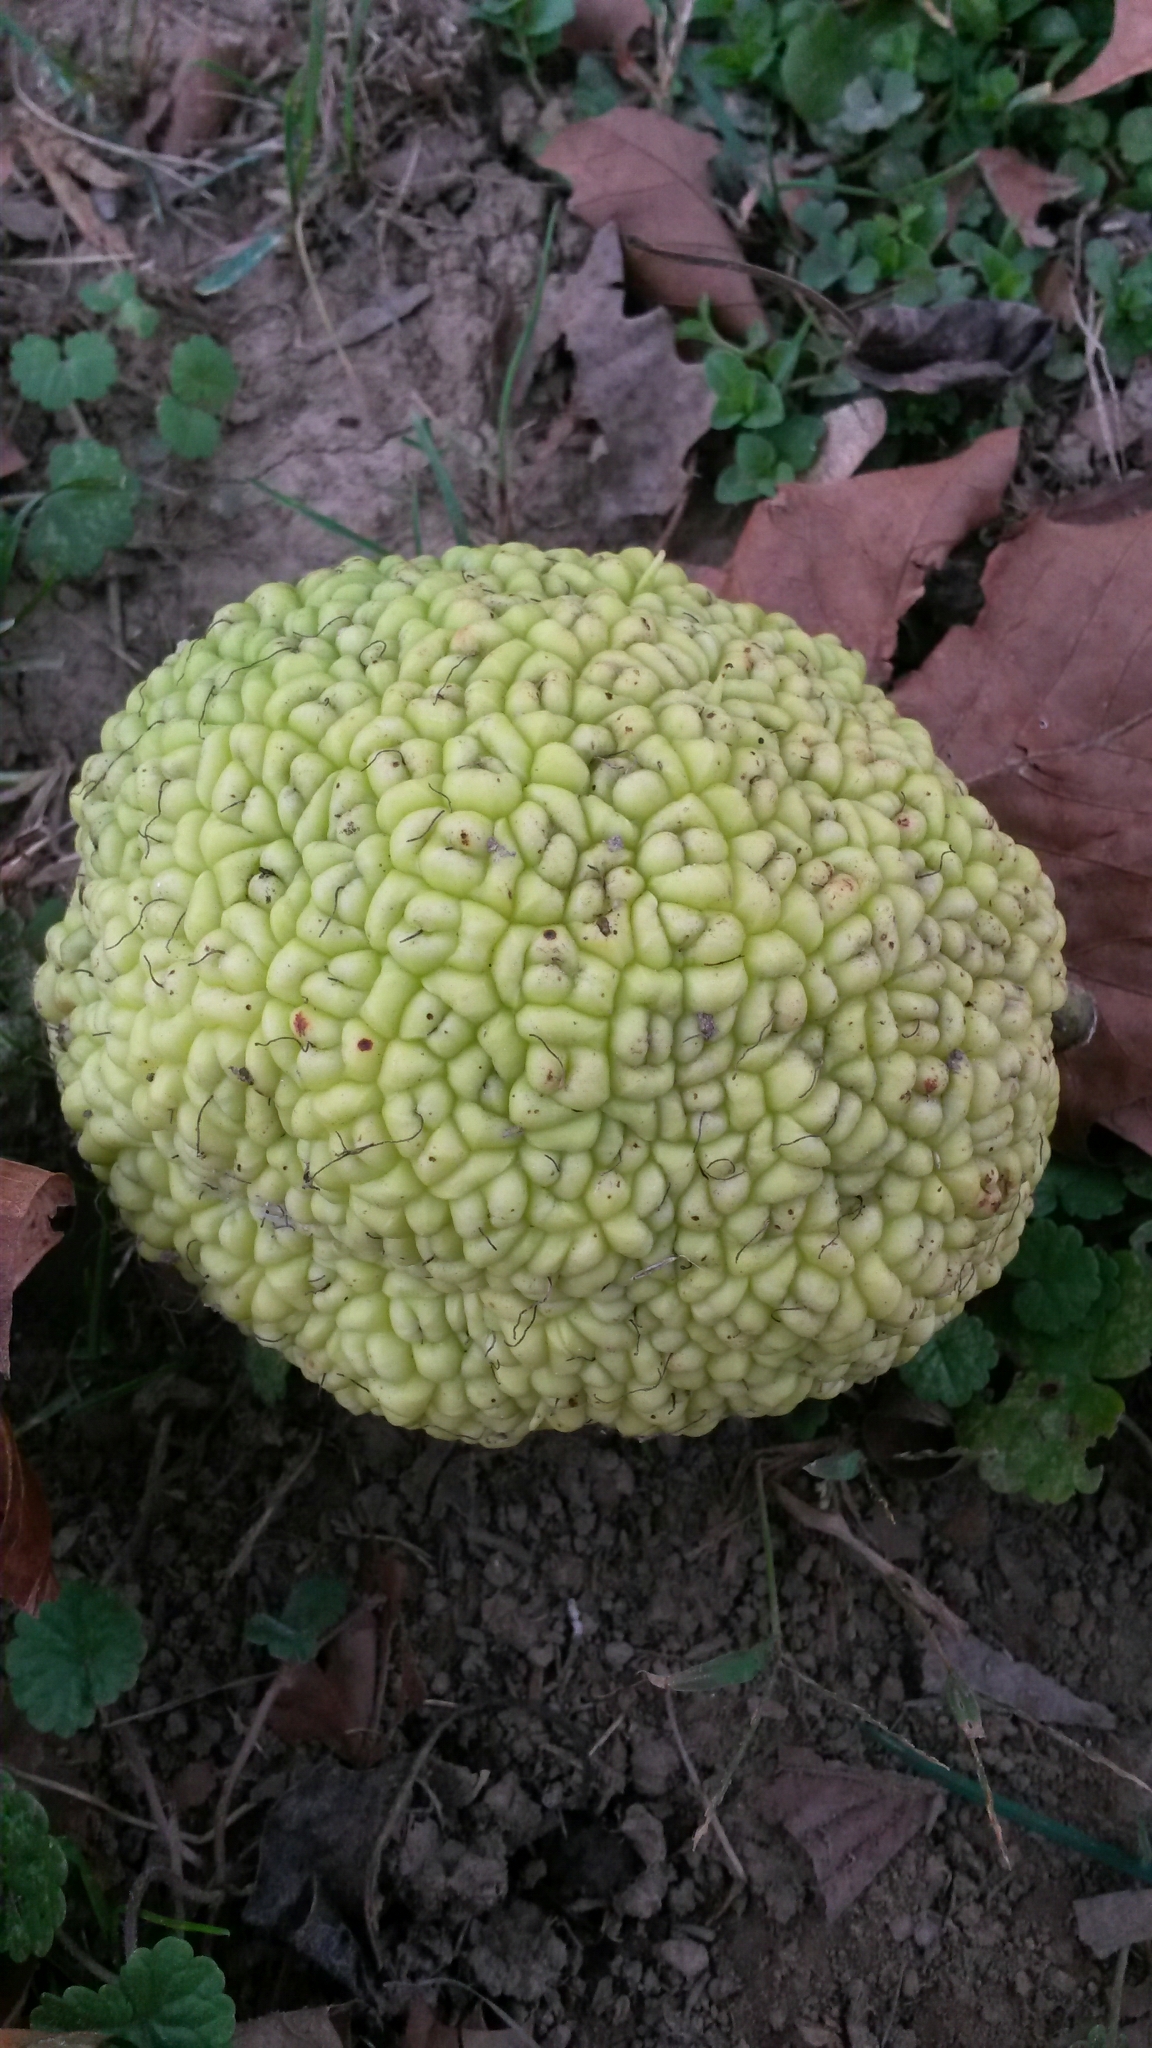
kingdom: Plantae
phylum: Tracheophyta
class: Magnoliopsida
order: Rosales
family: Moraceae
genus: Maclura
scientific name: Maclura pomifera
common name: Osage-orange
